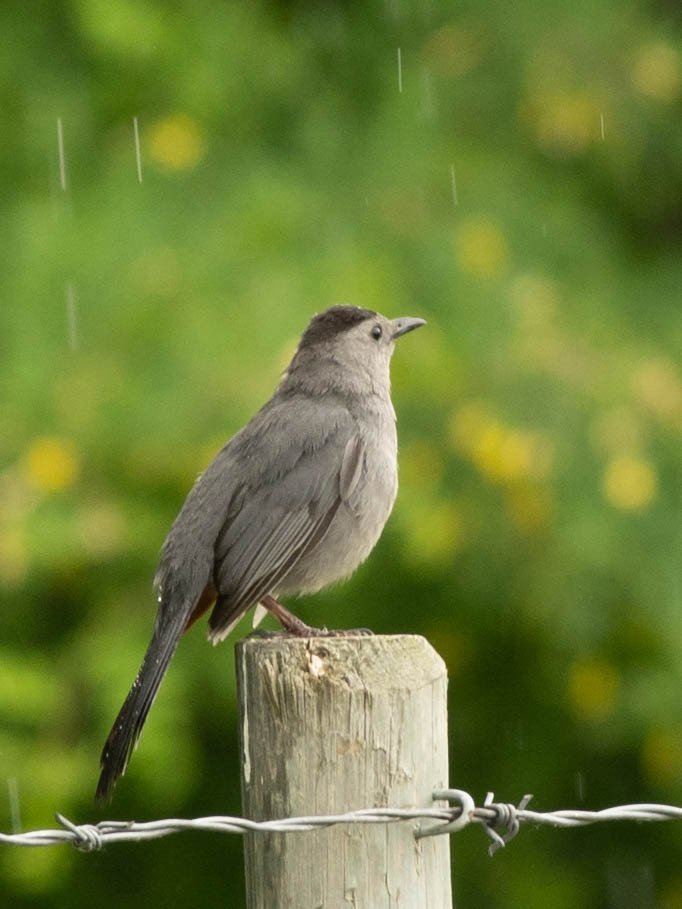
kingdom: Animalia
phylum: Chordata
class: Aves
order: Passeriformes
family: Mimidae
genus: Dumetella
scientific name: Dumetella carolinensis
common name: Gray catbird
